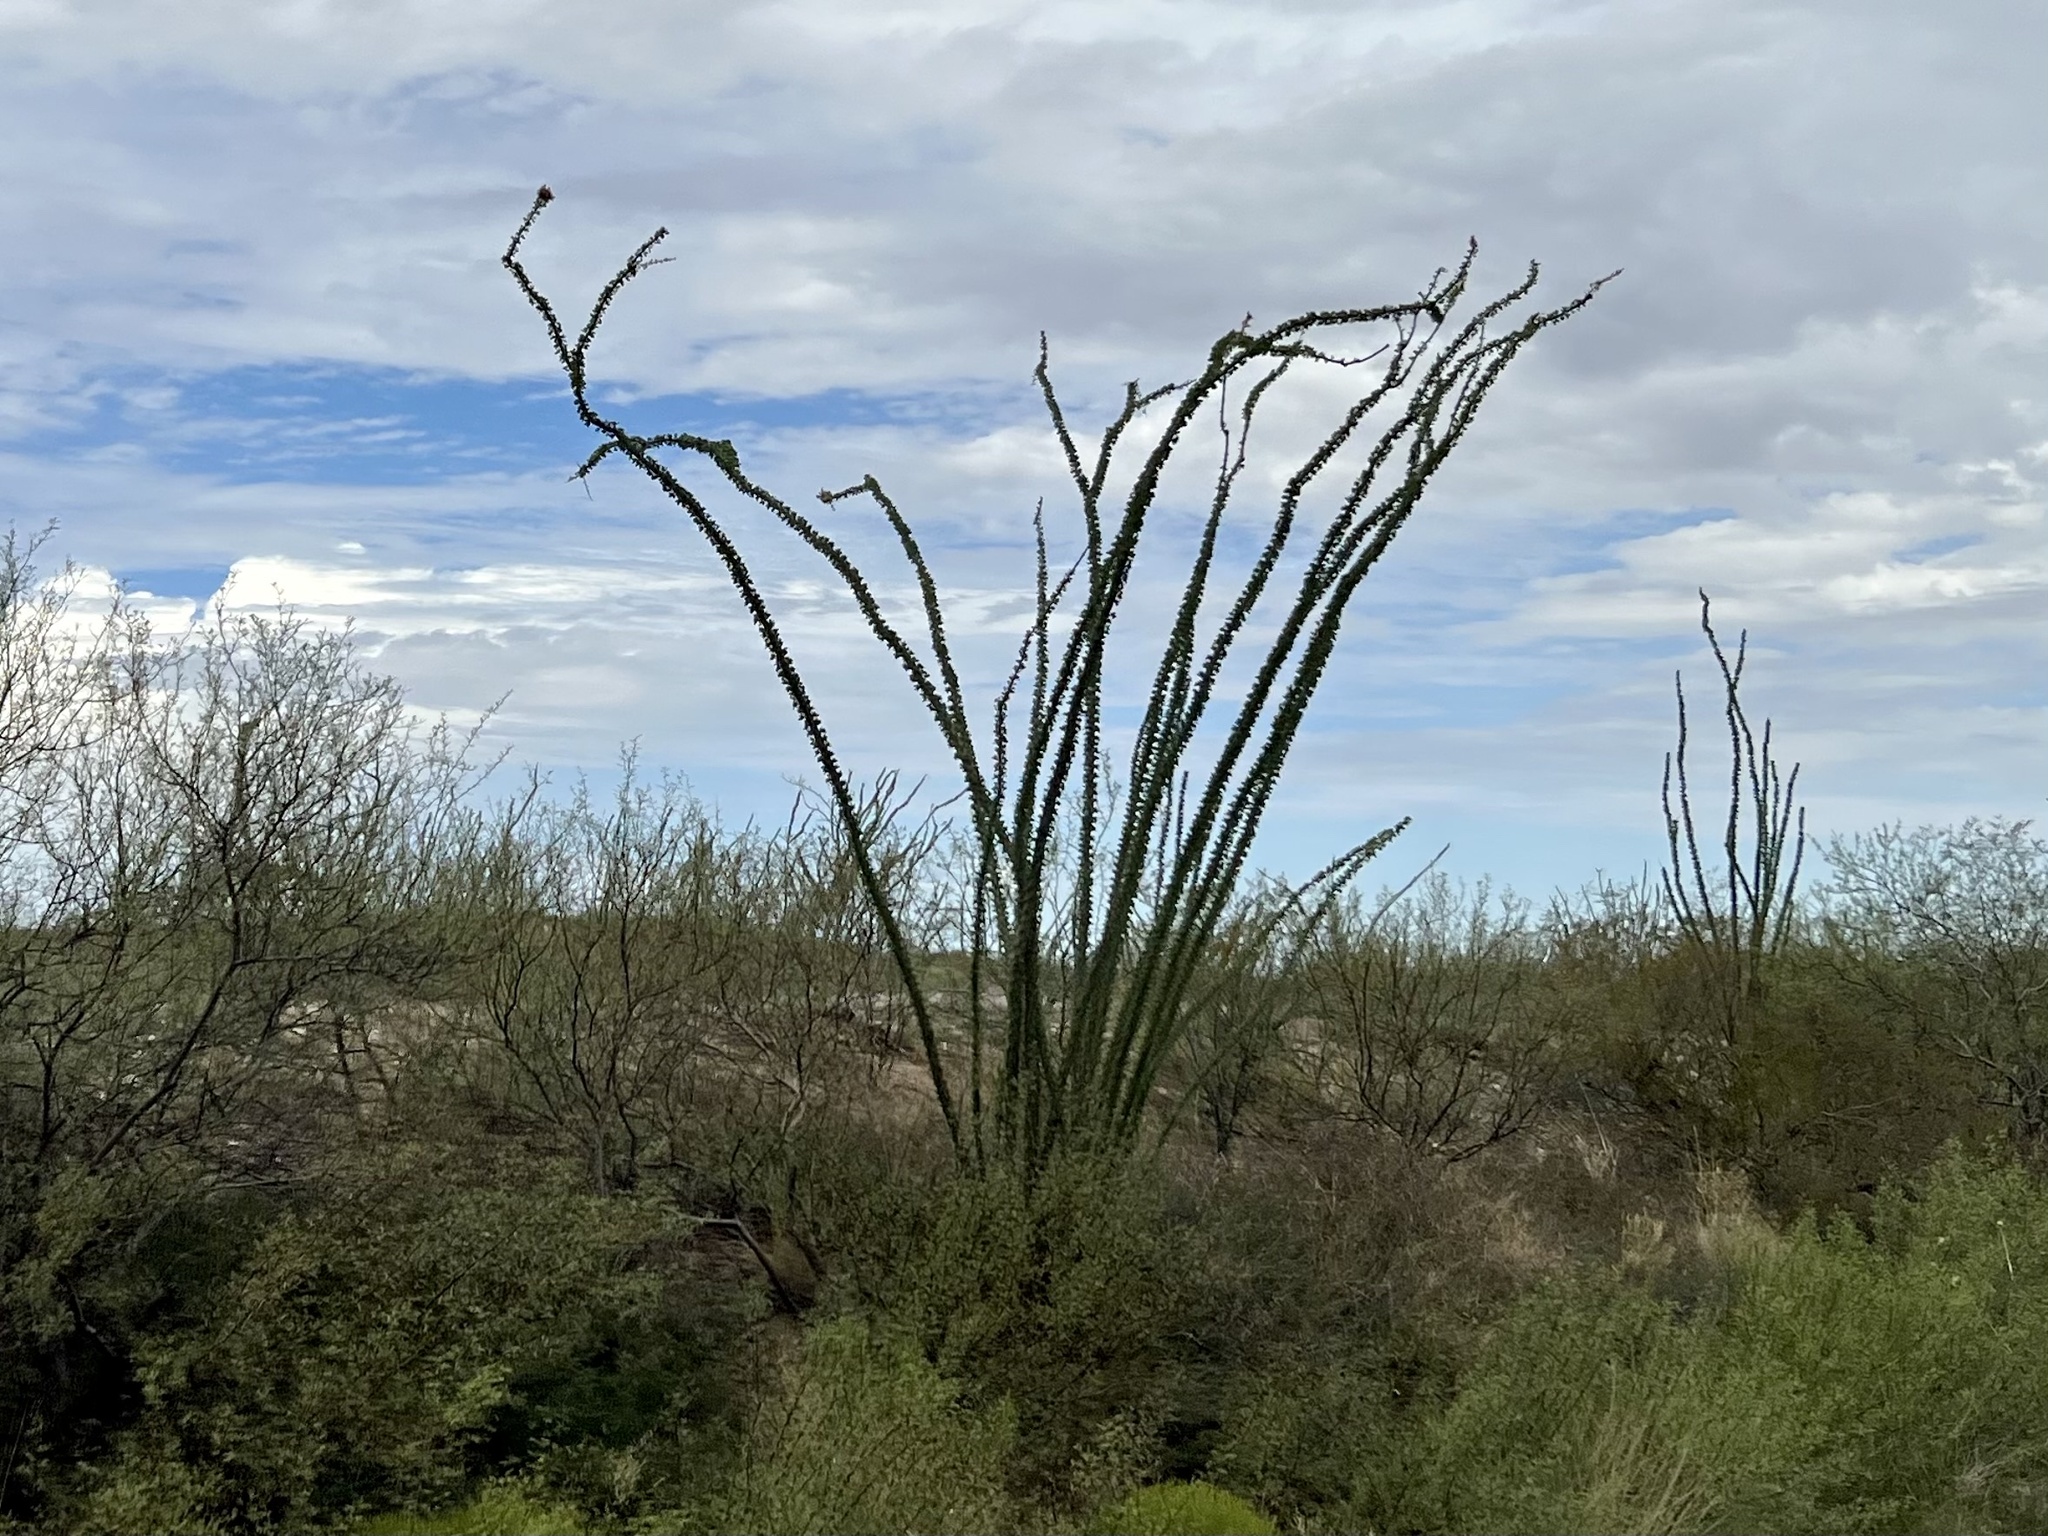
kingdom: Plantae
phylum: Tracheophyta
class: Magnoliopsida
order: Ericales
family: Fouquieriaceae
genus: Fouquieria
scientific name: Fouquieria splendens
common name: Vine-cactus
